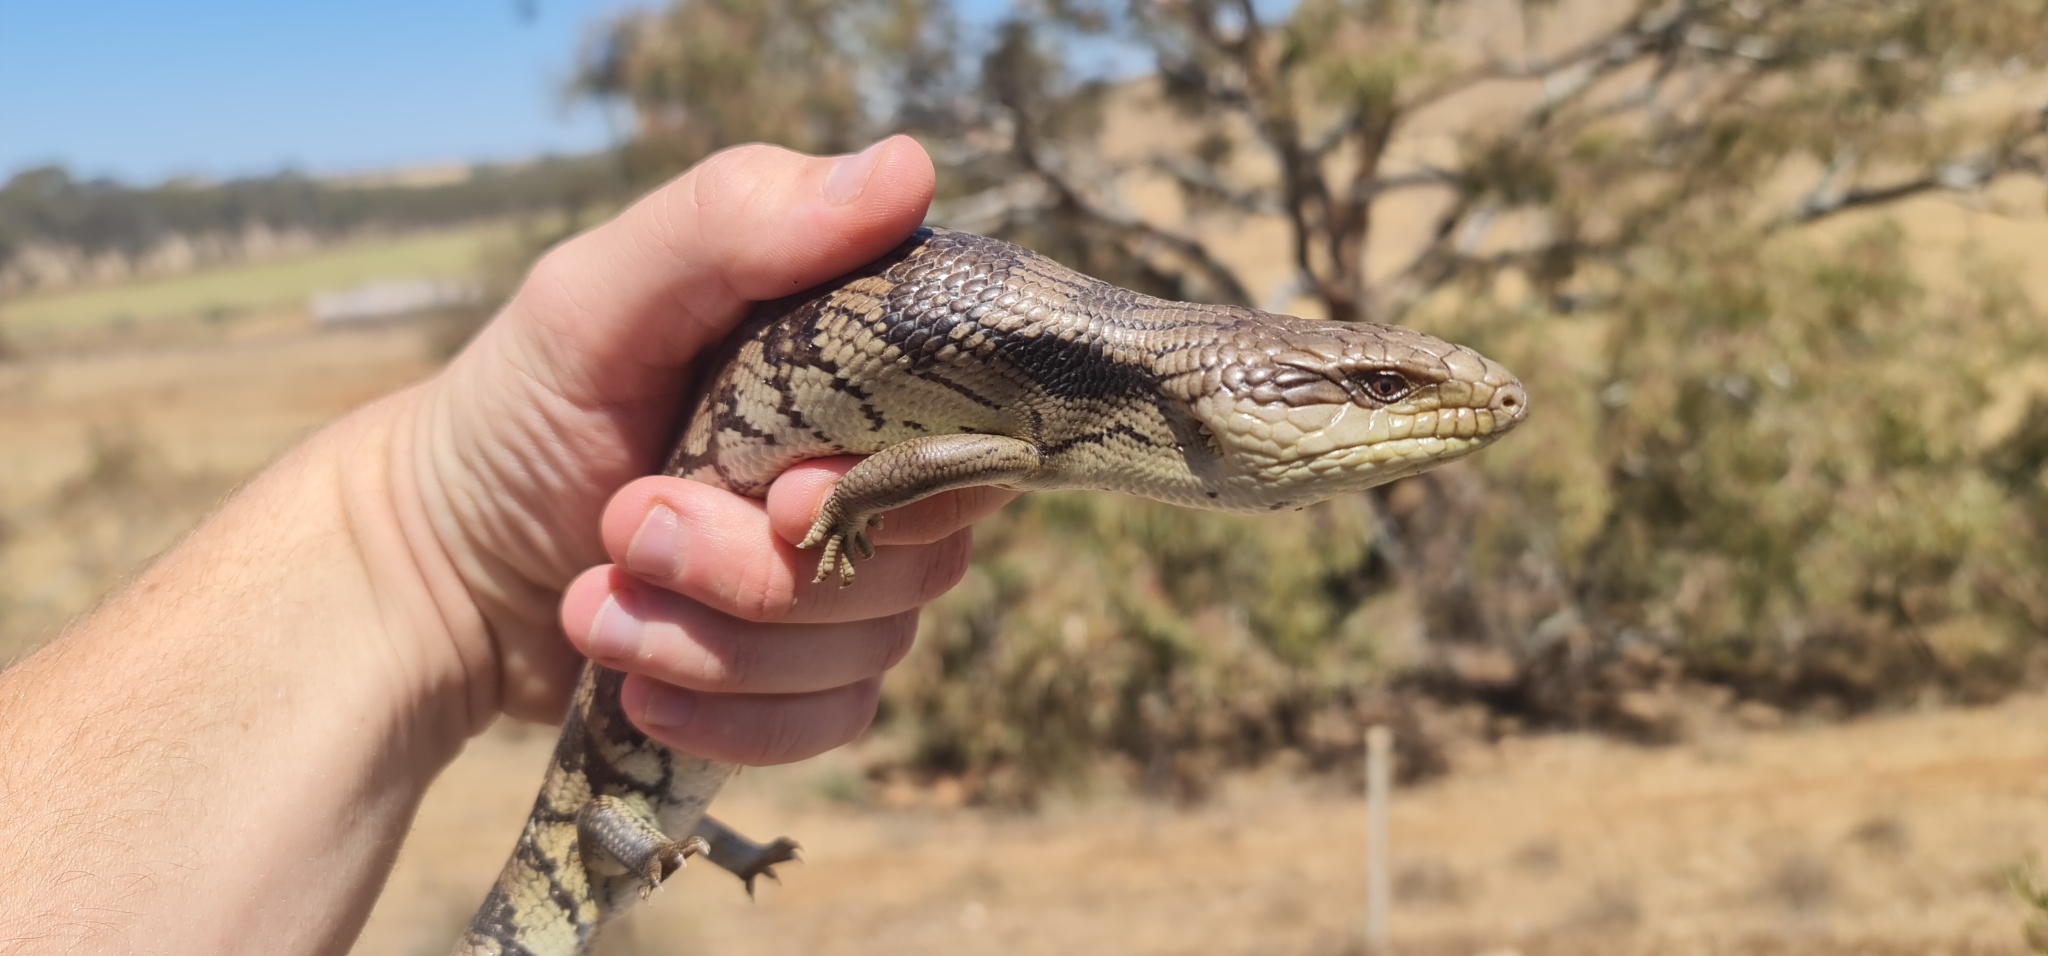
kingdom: Animalia
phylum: Chordata
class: Squamata
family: Scincidae
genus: Tiliqua
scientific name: Tiliqua scincoides
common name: Common bluetongue
